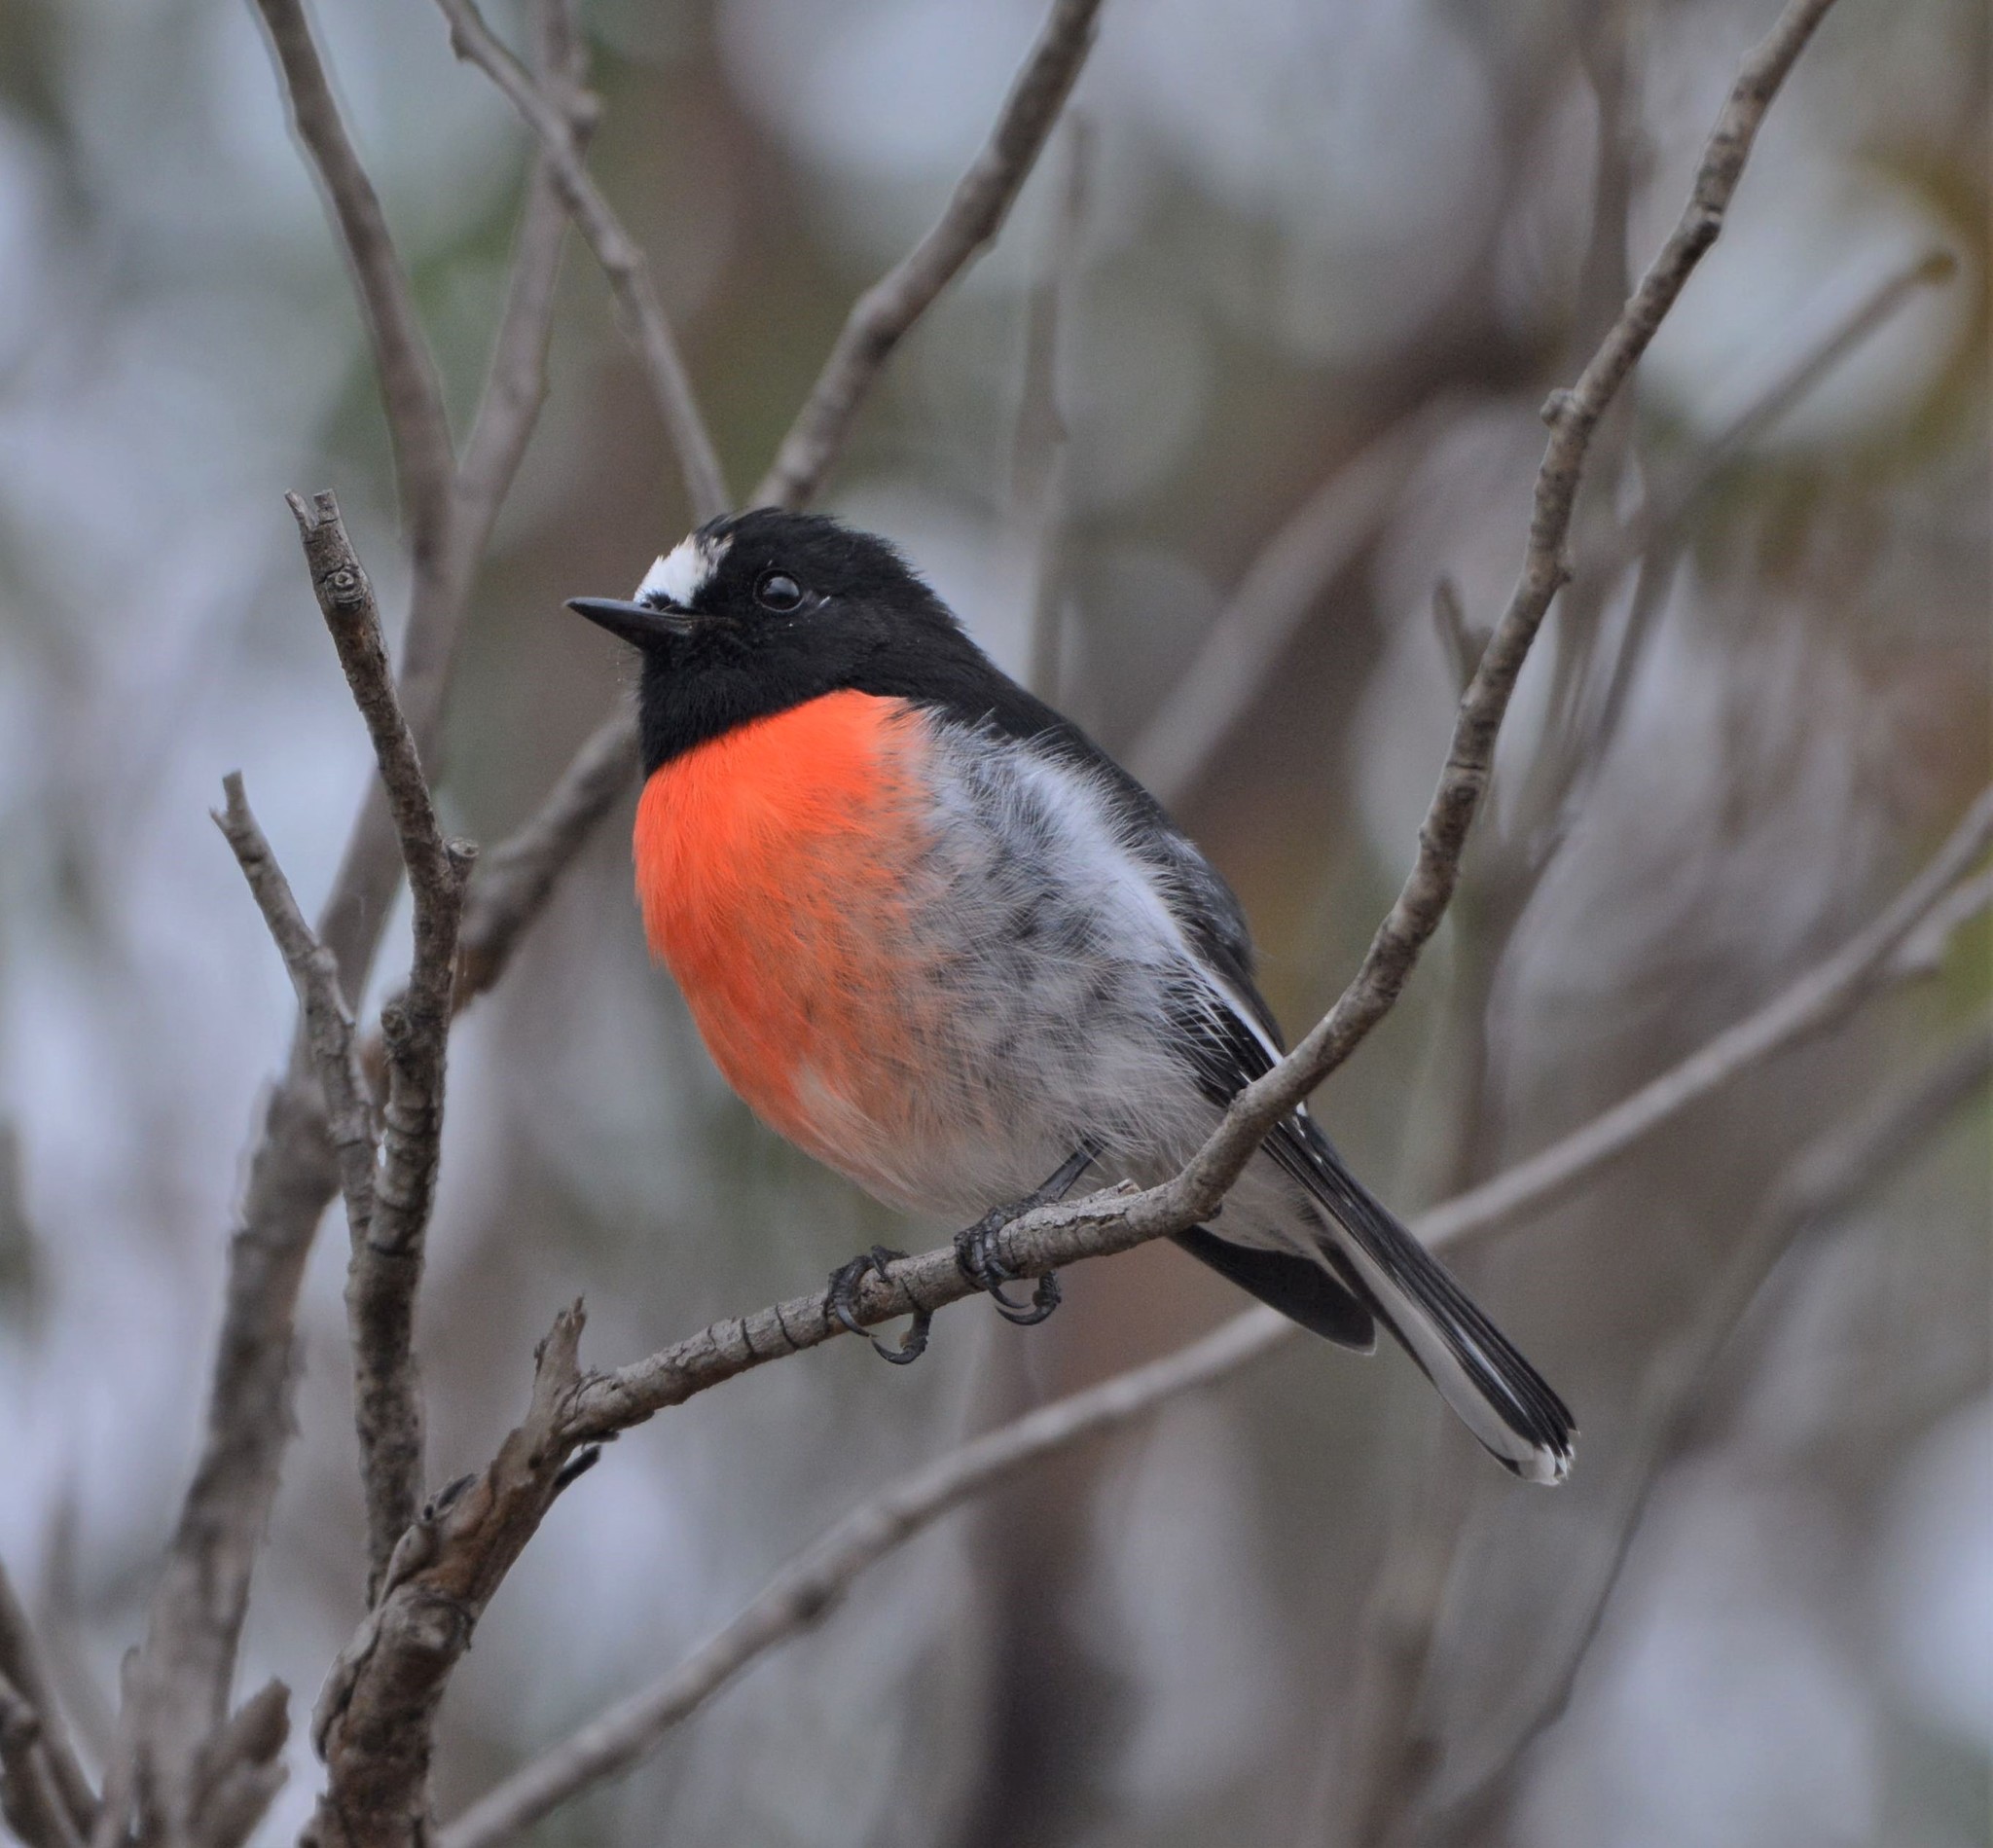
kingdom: Animalia
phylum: Chordata
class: Aves
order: Passeriformes
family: Petroicidae
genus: Petroica
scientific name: Petroica boodang
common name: Scarlet robin
